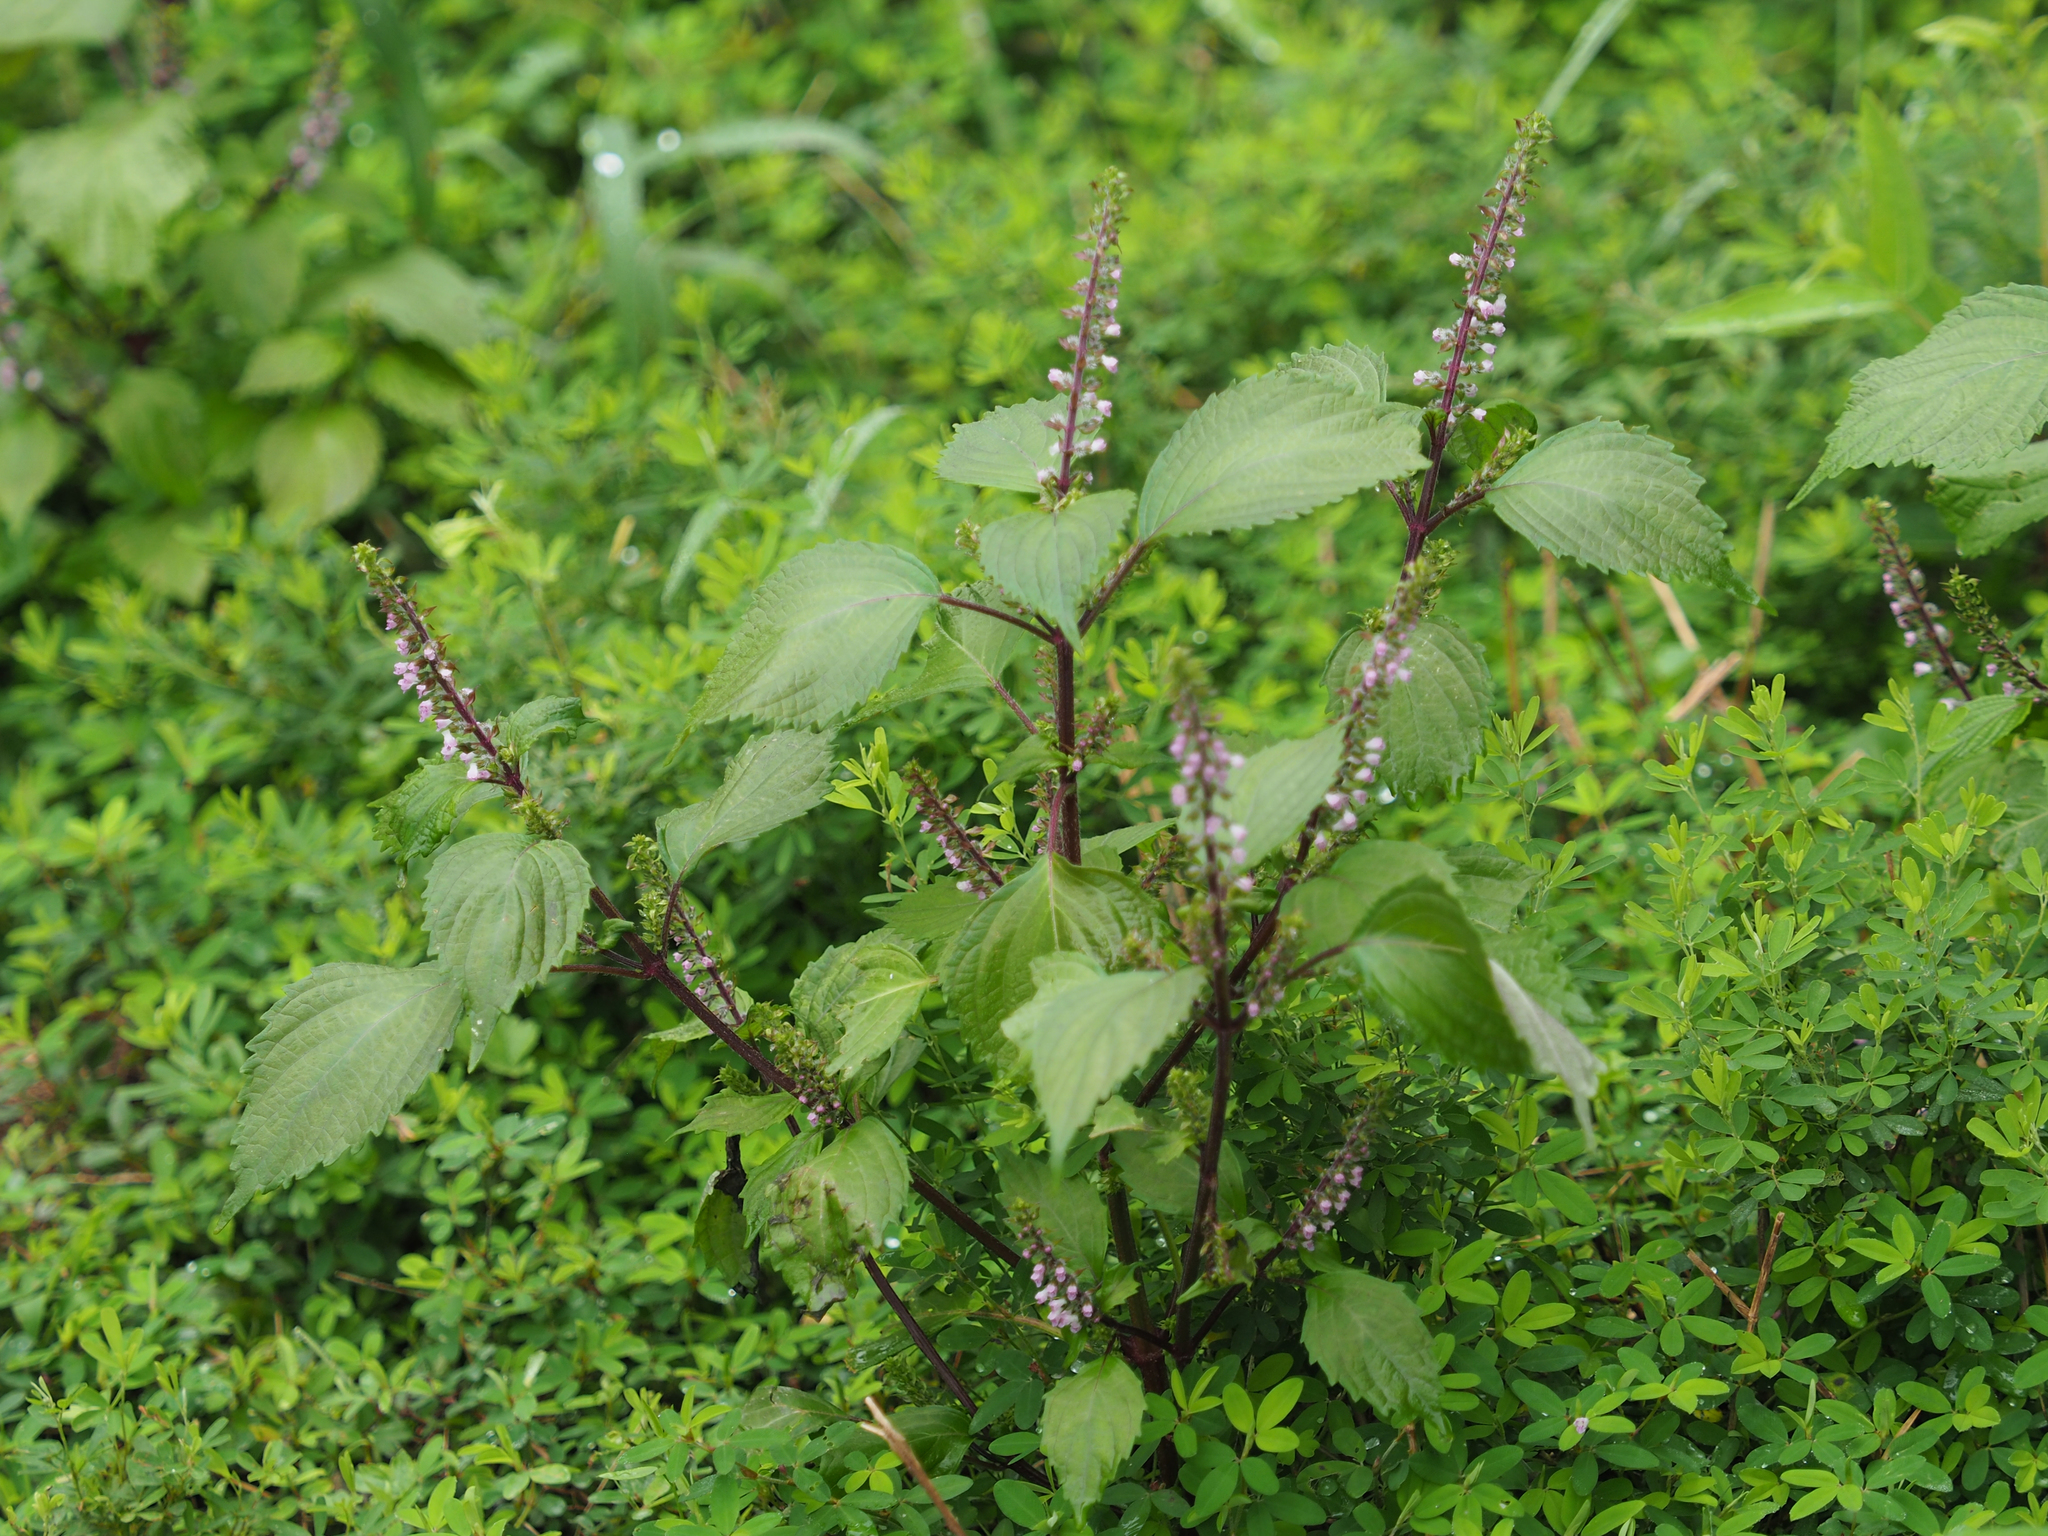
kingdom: Plantae
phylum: Tracheophyta
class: Magnoliopsida
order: Lamiales
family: Lamiaceae
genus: Perilla
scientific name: Perilla frutescens
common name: Perilla
